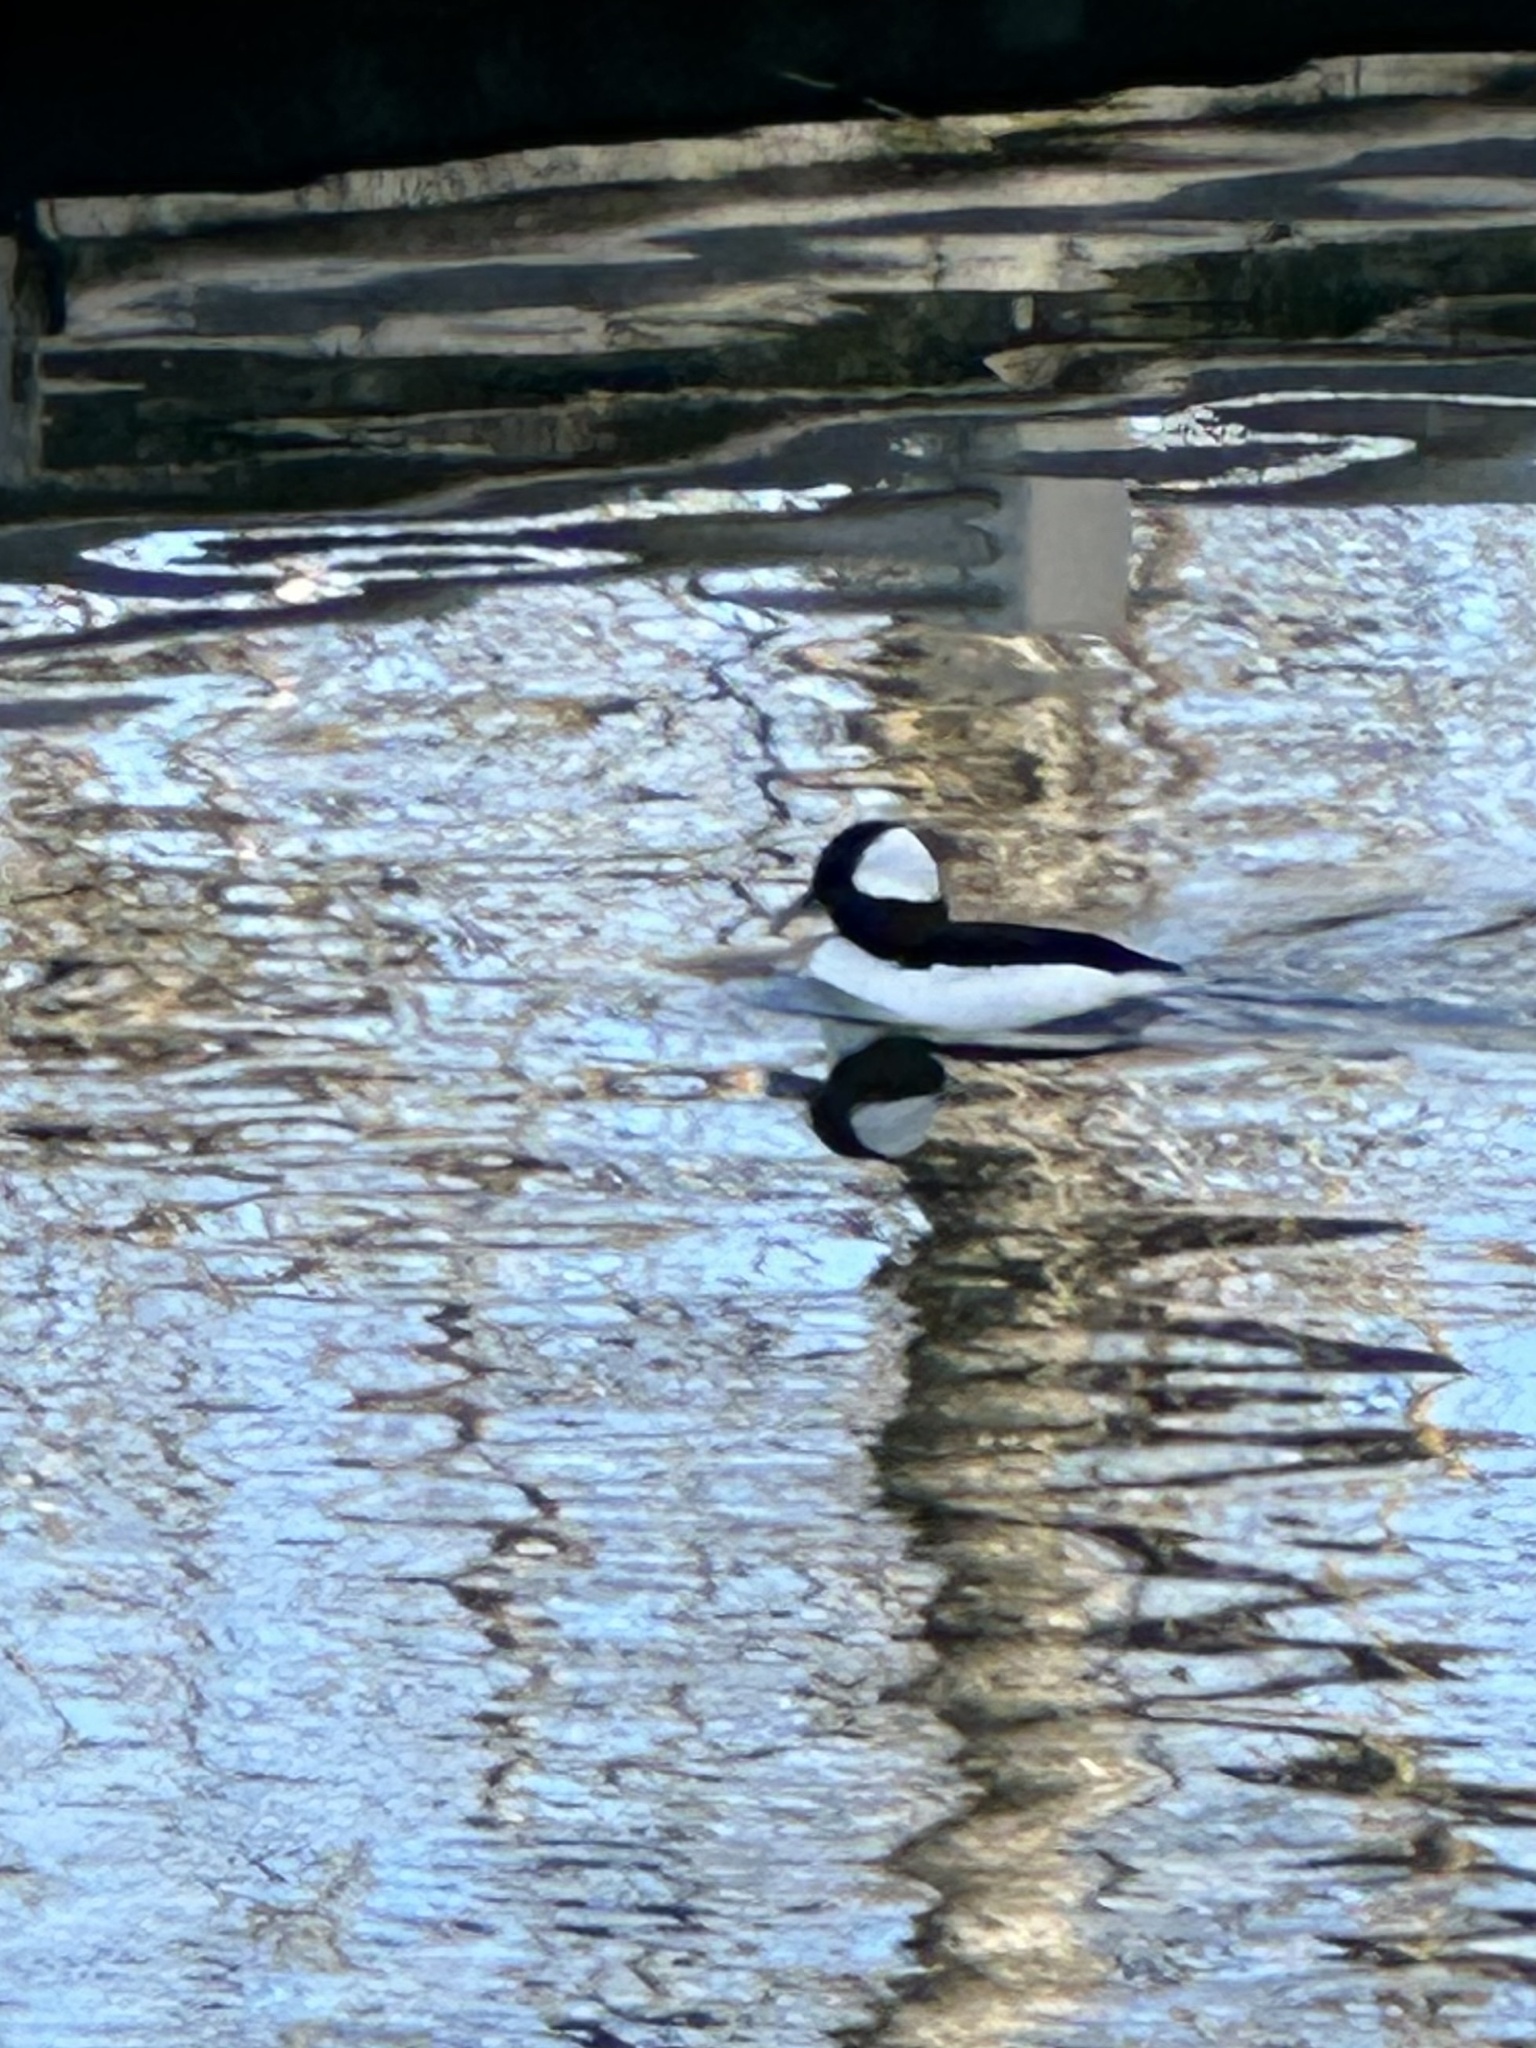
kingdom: Animalia
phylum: Chordata
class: Aves
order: Anseriformes
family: Anatidae
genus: Bucephala
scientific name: Bucephala albeola
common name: Bufflehead
